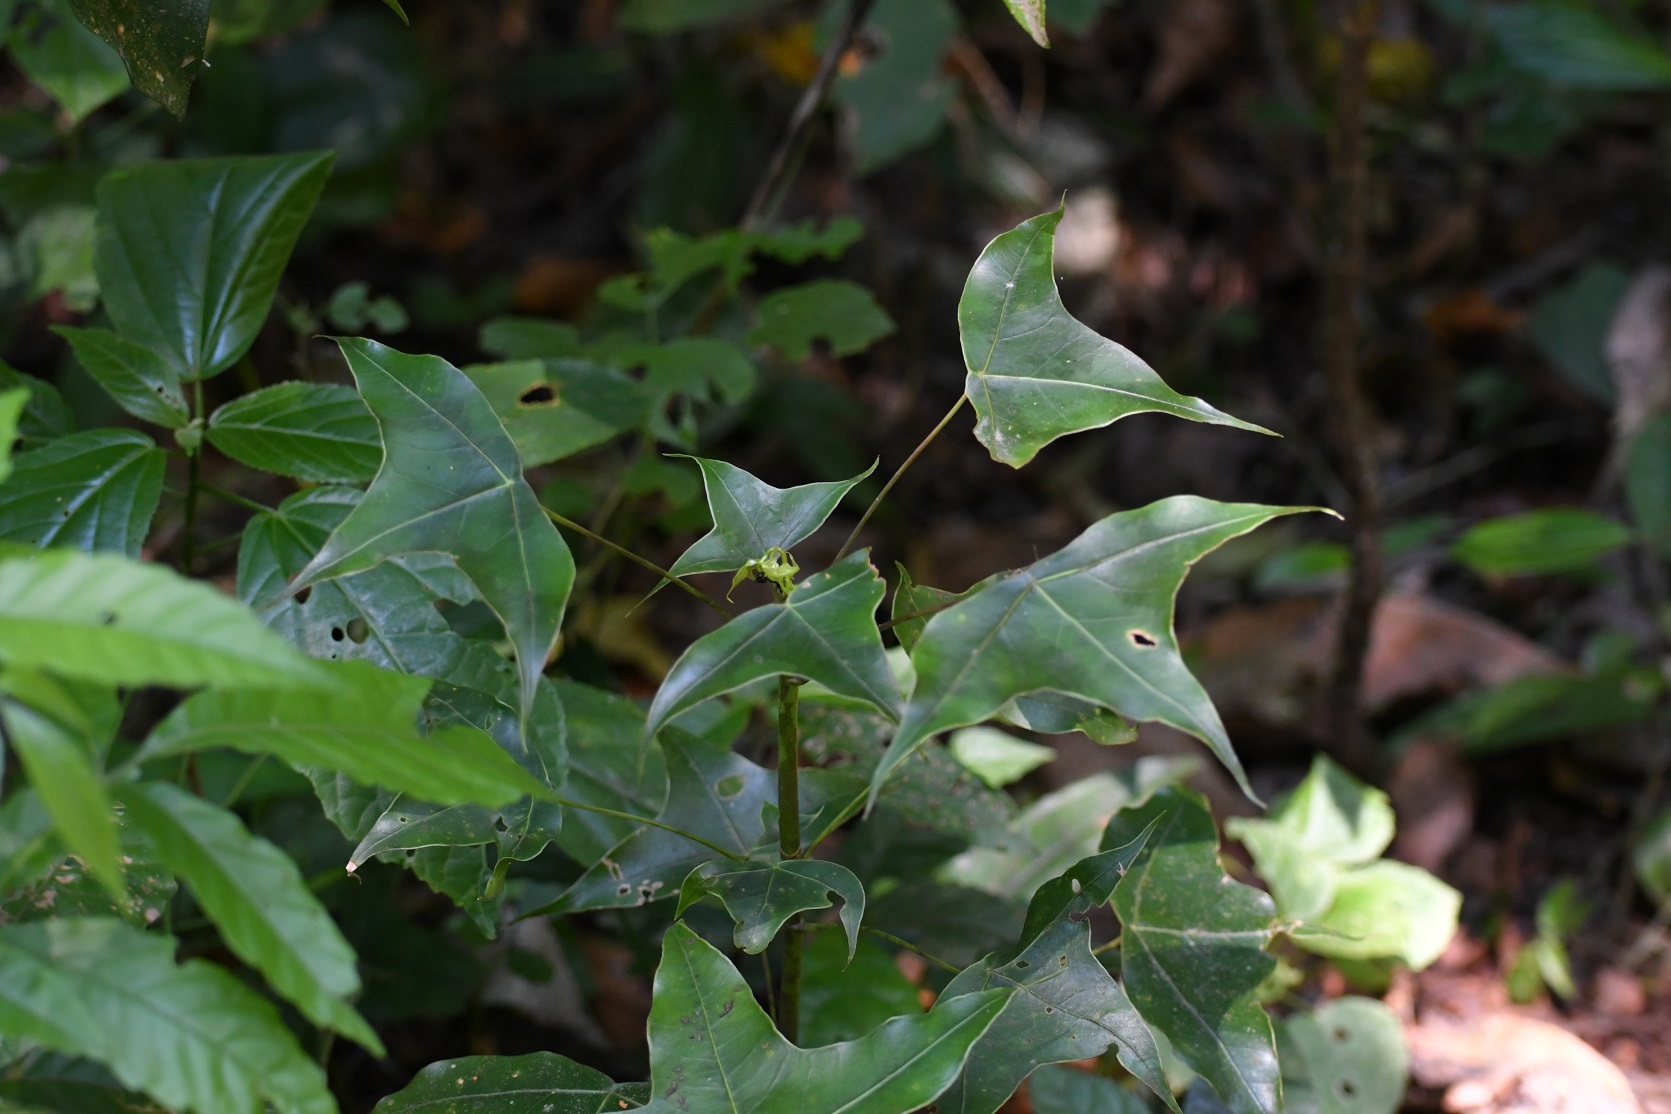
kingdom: Plantae
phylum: Tracheophyta
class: Magnoliopsida
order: Apiales
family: Araliaceae
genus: Oreopanax
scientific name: Oreopanax sanderianus
